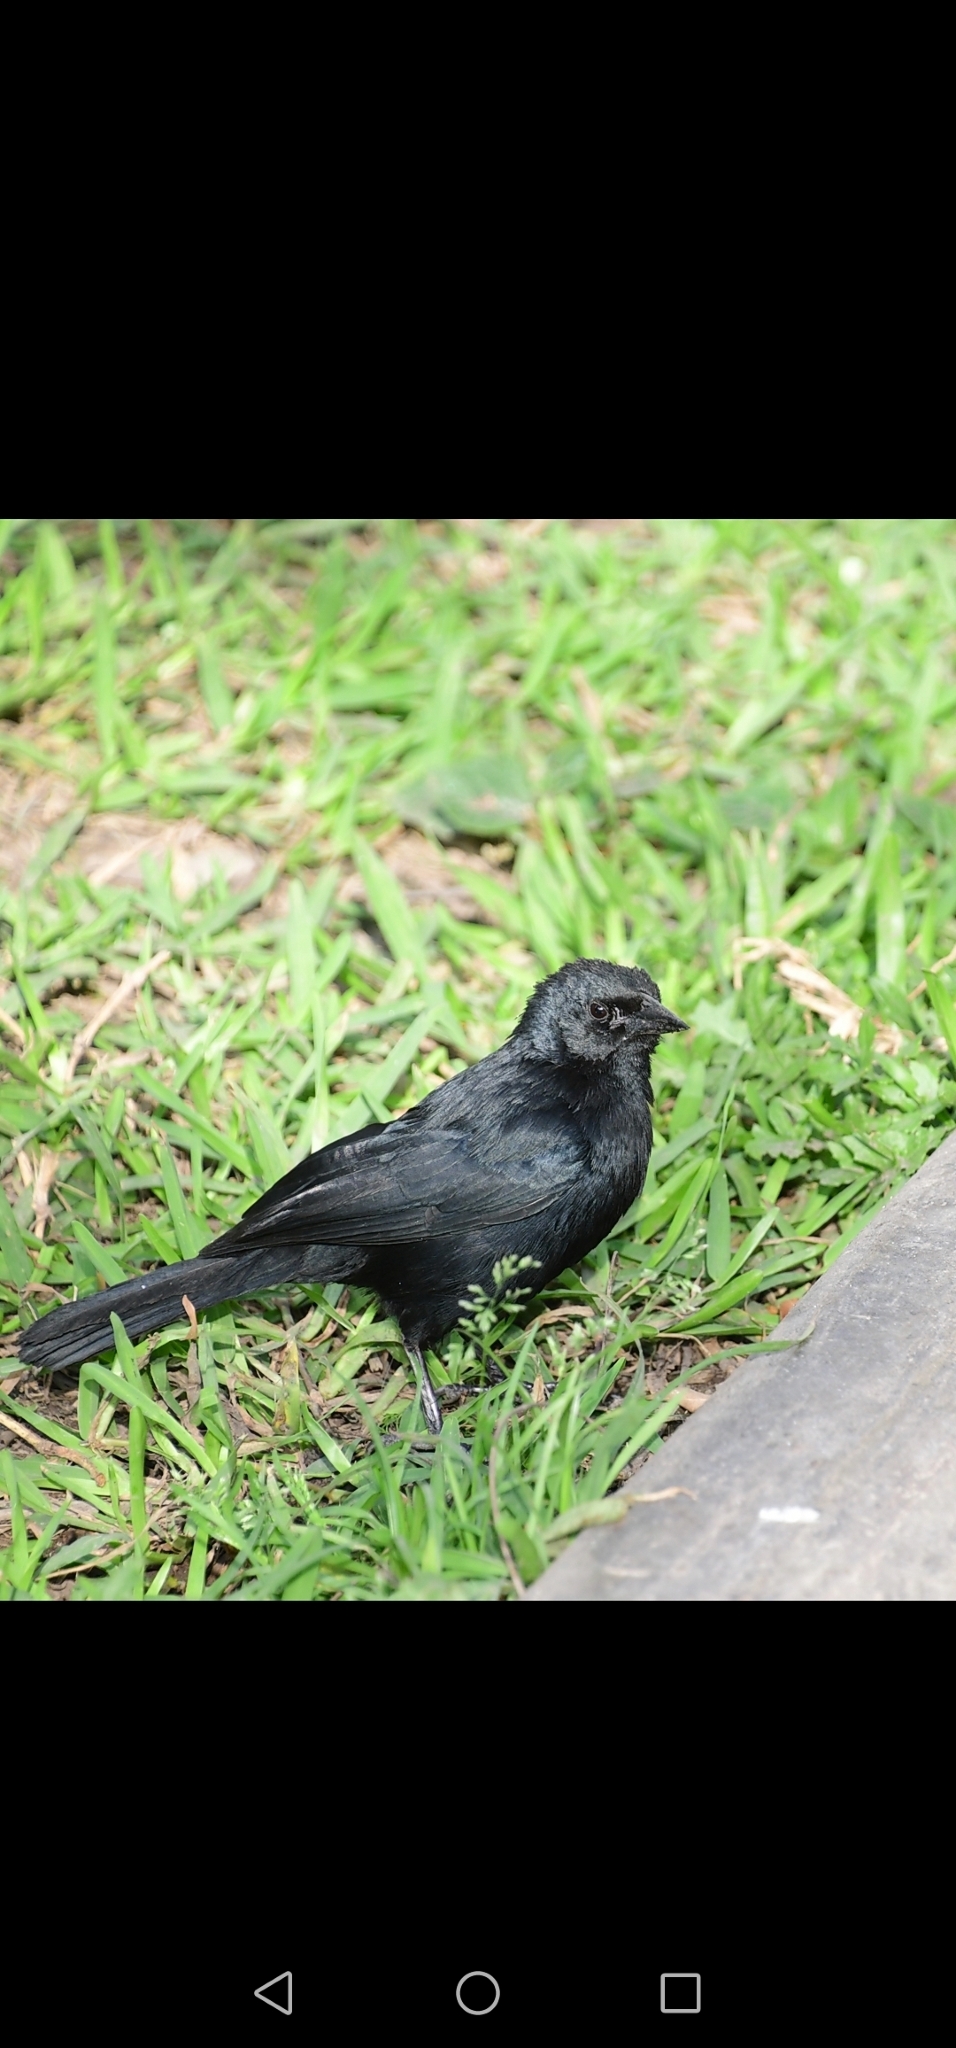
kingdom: Animalia
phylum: Chordata
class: Aves
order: Passeriformes
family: Icteridae
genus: Dives
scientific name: Dives warczewiczi
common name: Scrub blackbird
